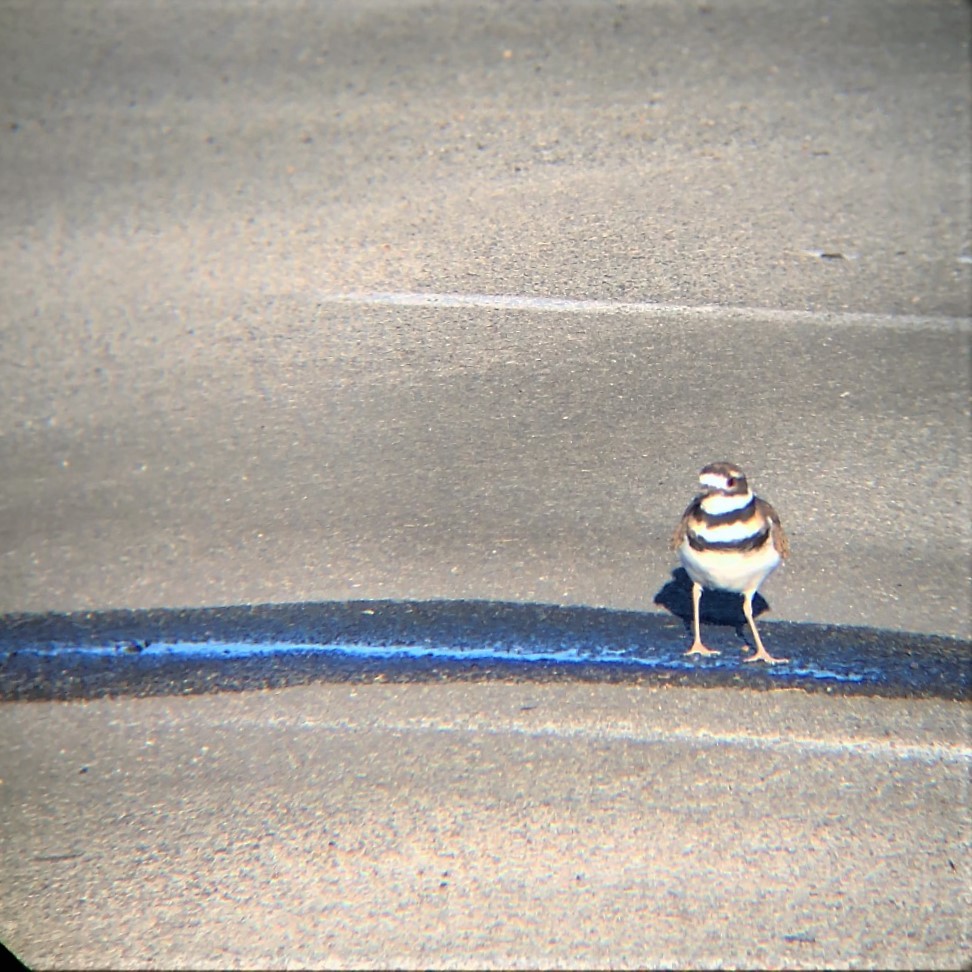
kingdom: Animalia
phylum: Chordata
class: Aves
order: Charadriiformes
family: Charadriidae
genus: Charadrius
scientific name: Charadrius vociferus
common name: Killdeer
